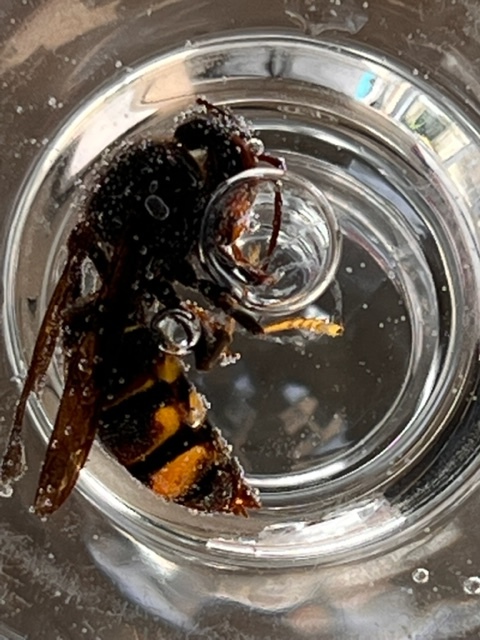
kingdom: Animalia
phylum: Arthropoda
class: Insecta
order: Hymenoptera
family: Vespidae
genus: Vespa
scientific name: Vespa velutina
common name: Asian hornet
